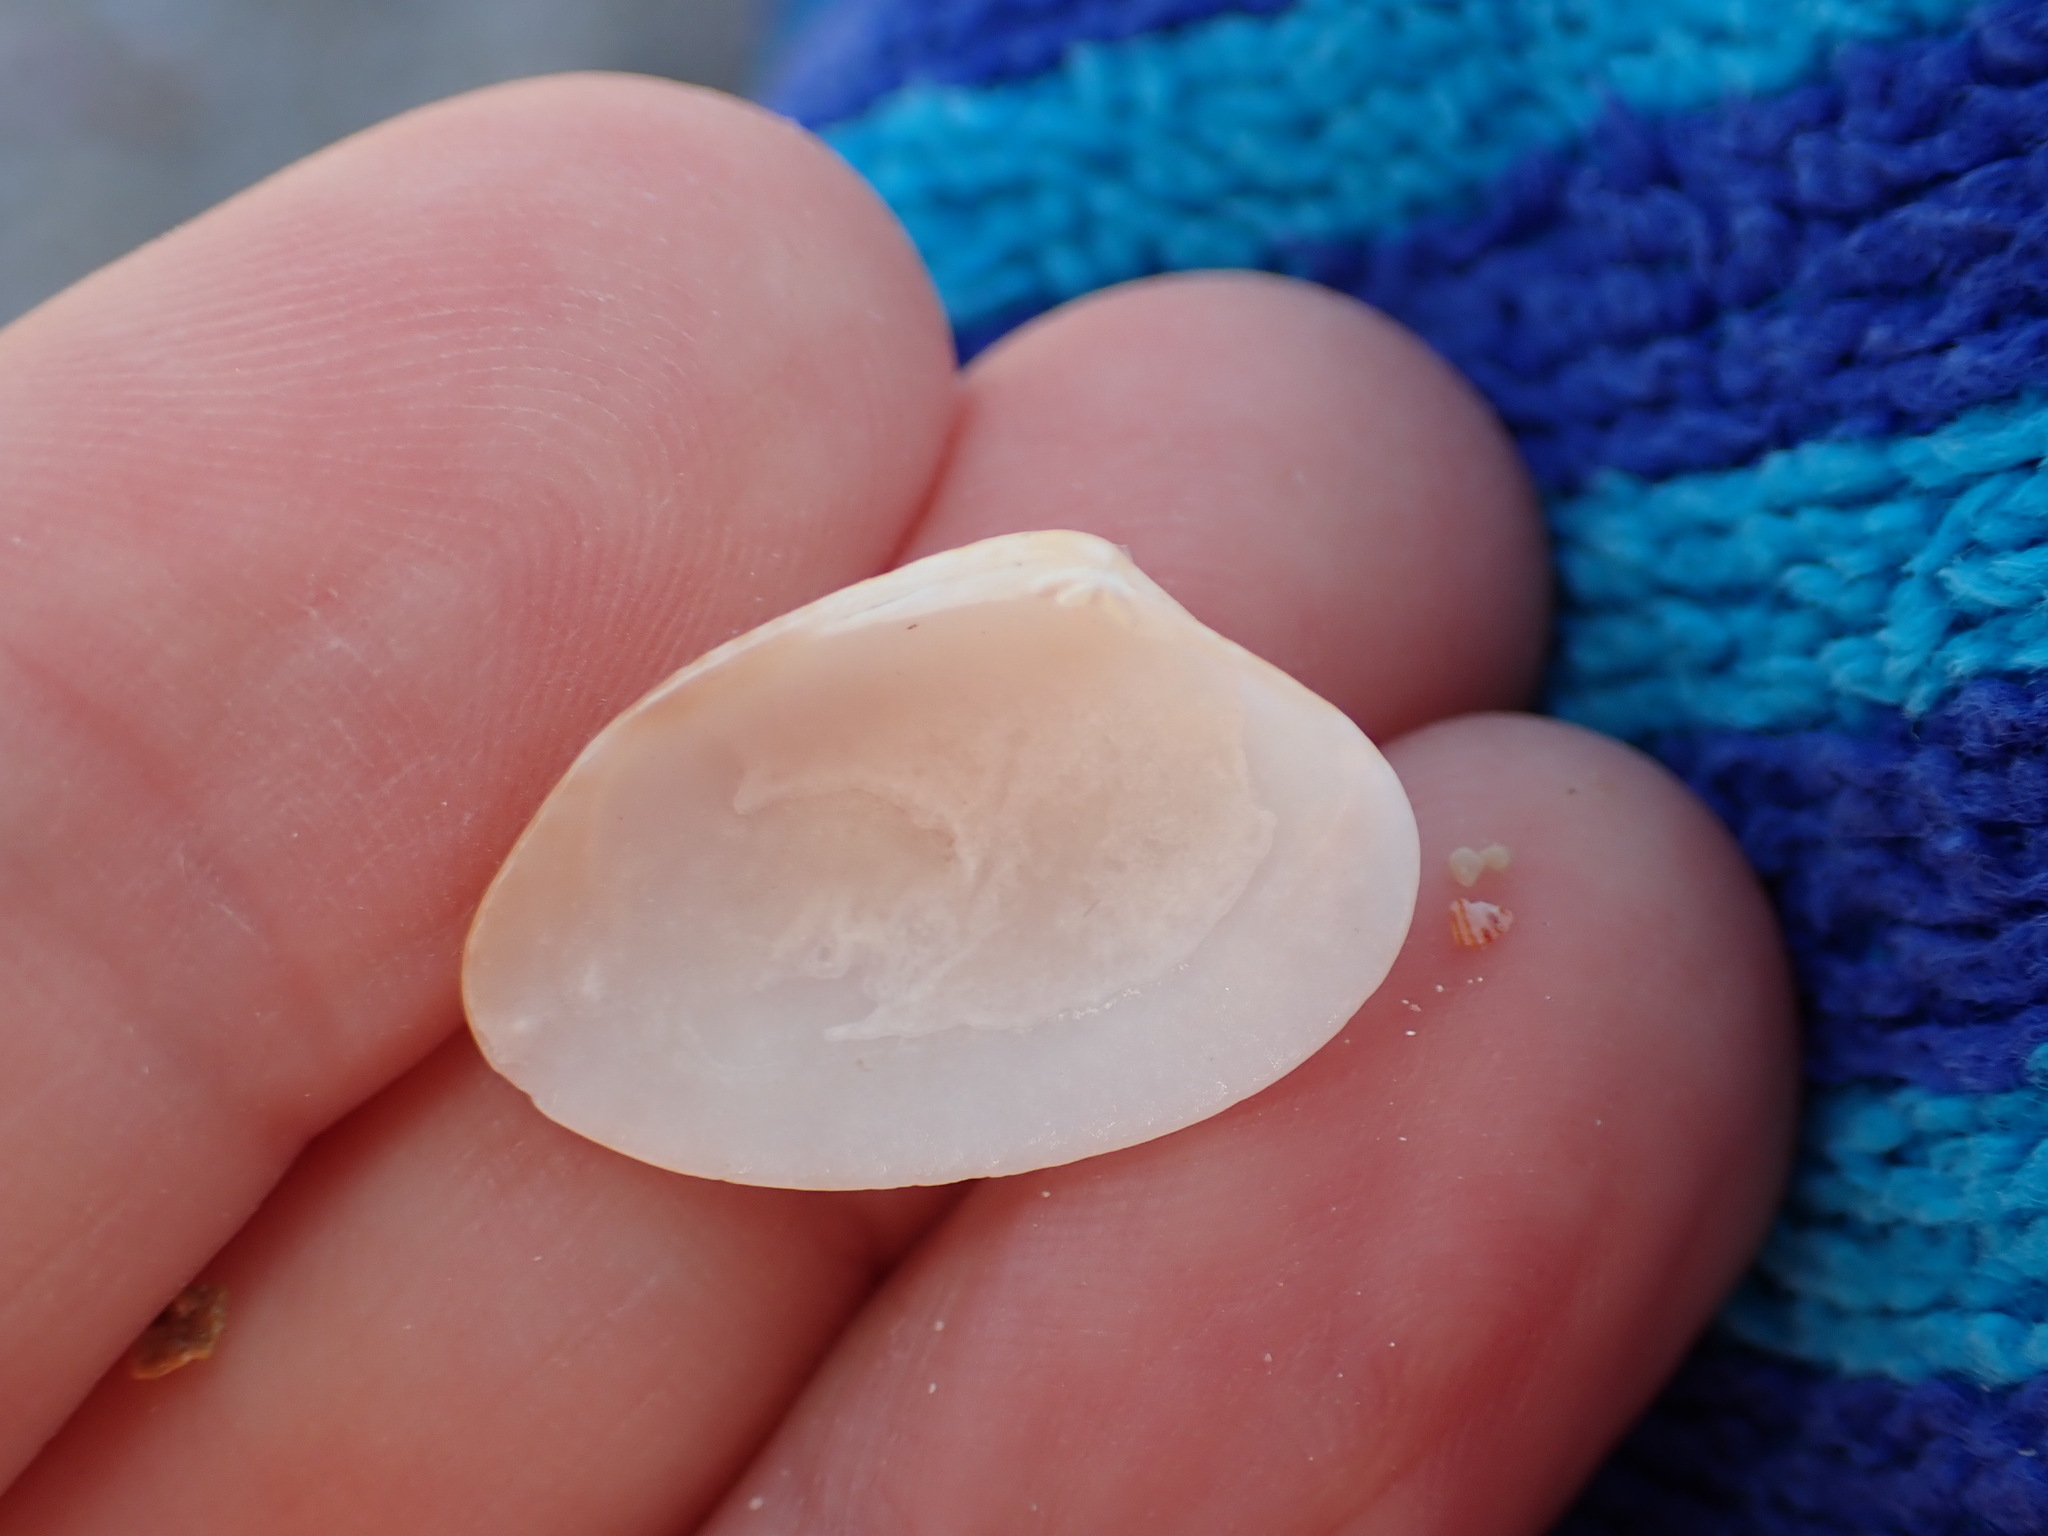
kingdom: Animalia
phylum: Mollusca
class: Bivalvia
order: Venerida
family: Veneridae
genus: Polititapes
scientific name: Polititapes aureus
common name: Golden carpet shell
